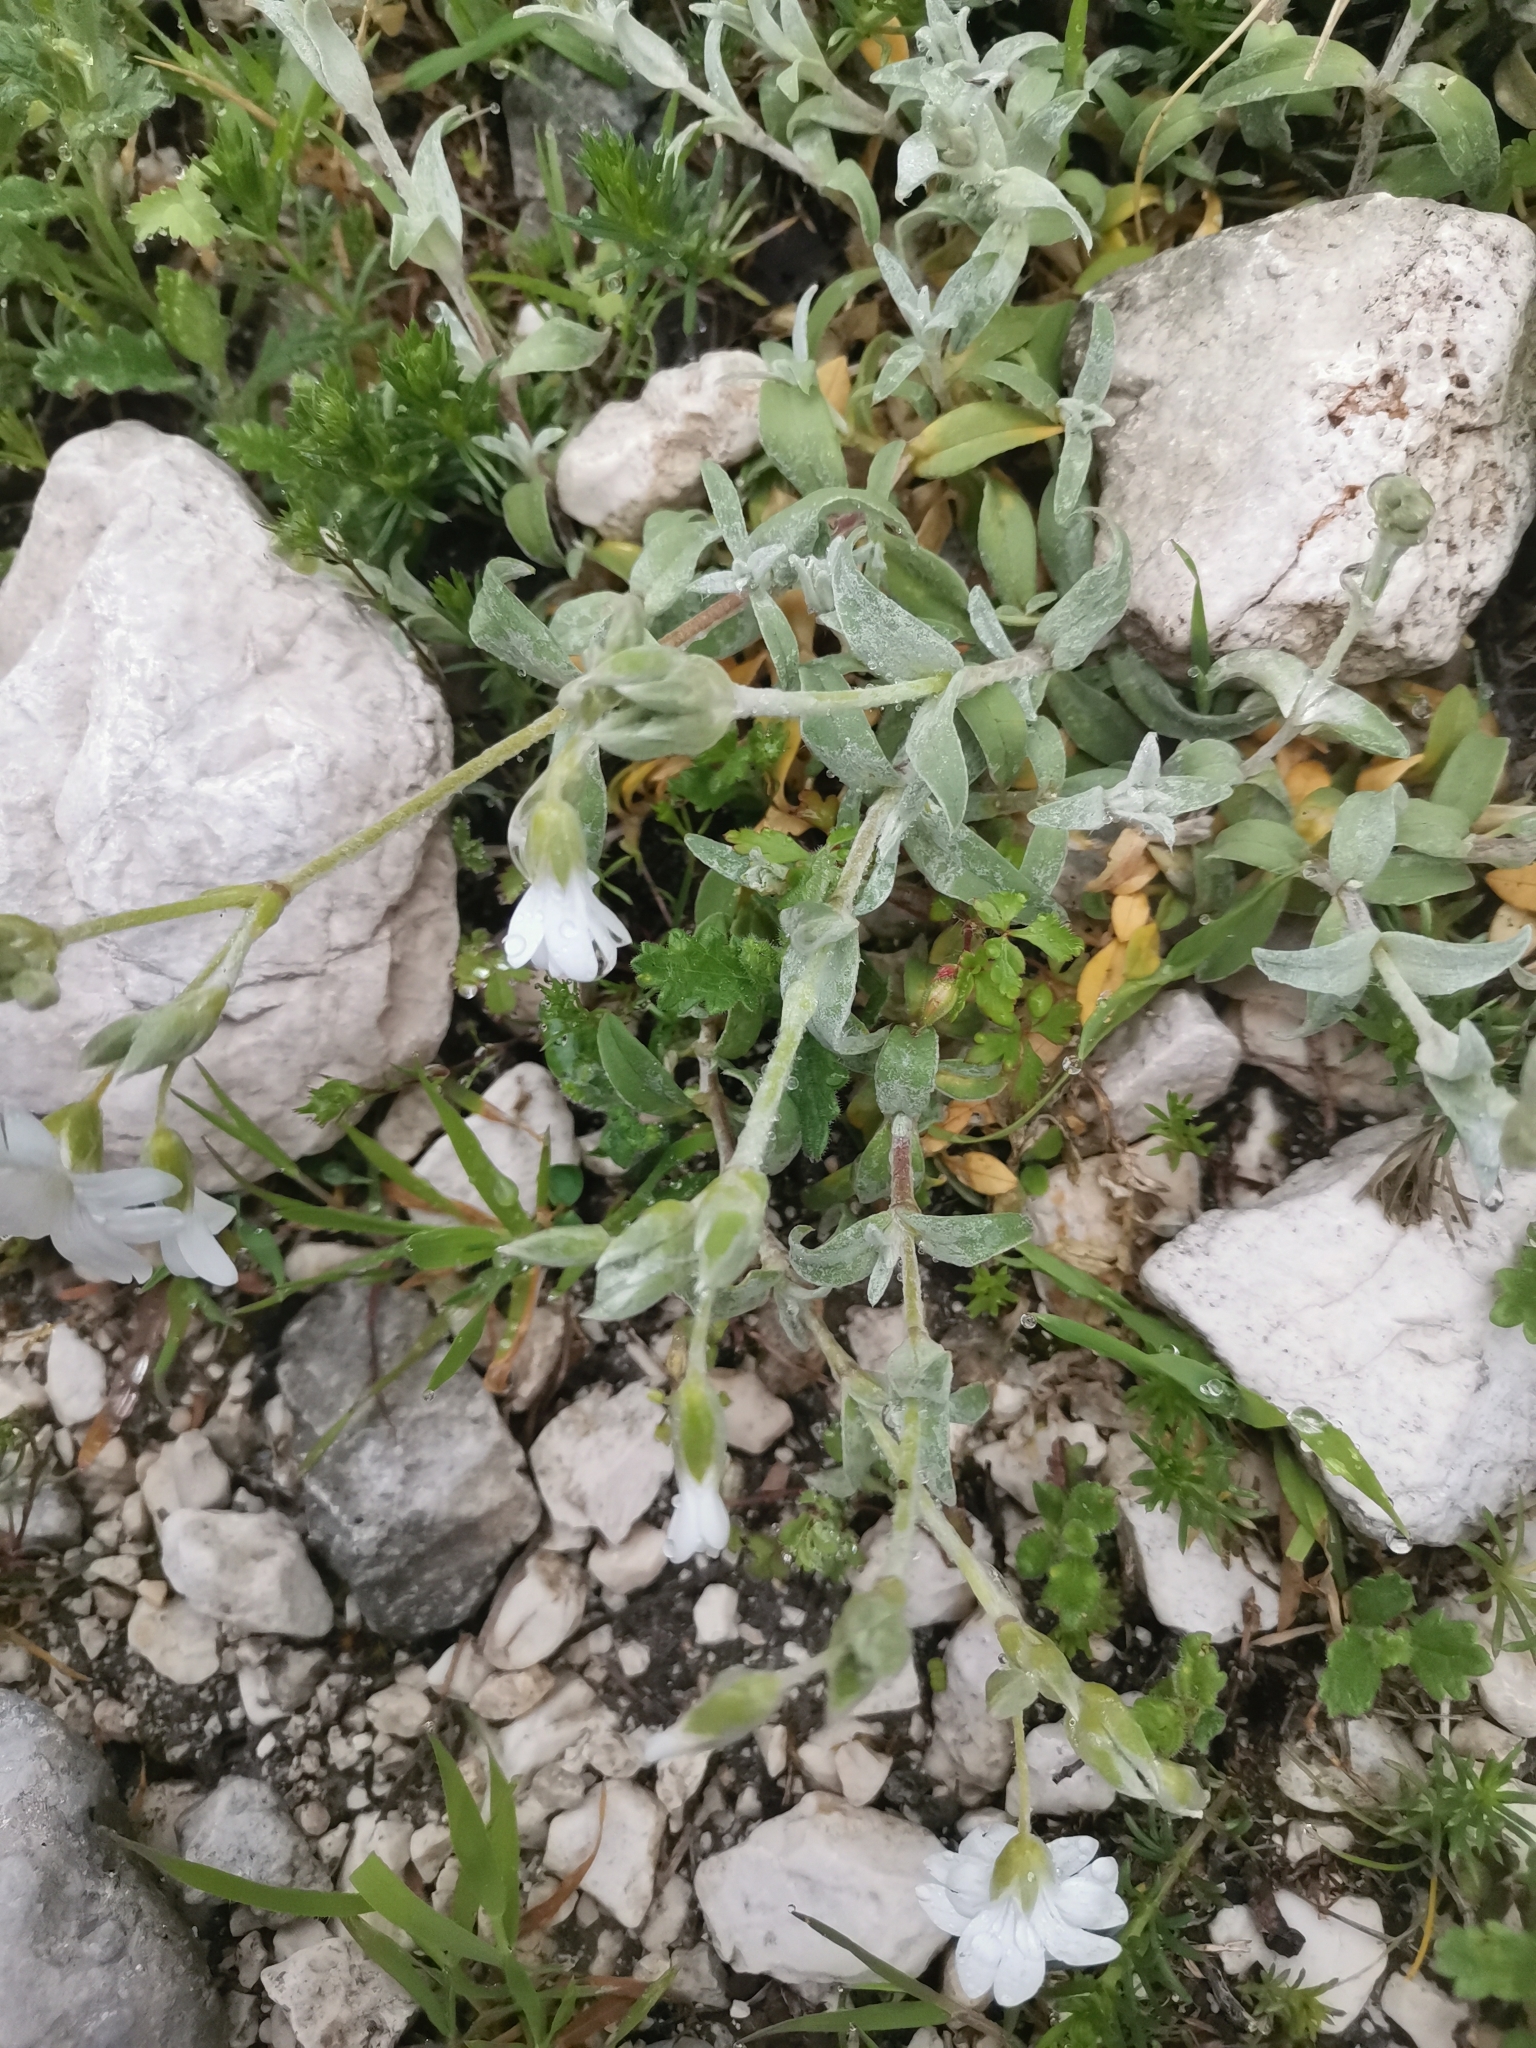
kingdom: Plantae
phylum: Tracheophyta
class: Magnoliopsida
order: Caryophyllales
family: Caryophyllaceae
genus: Cerastium
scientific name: Cerastium tomentosum
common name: Snow-in-summer
